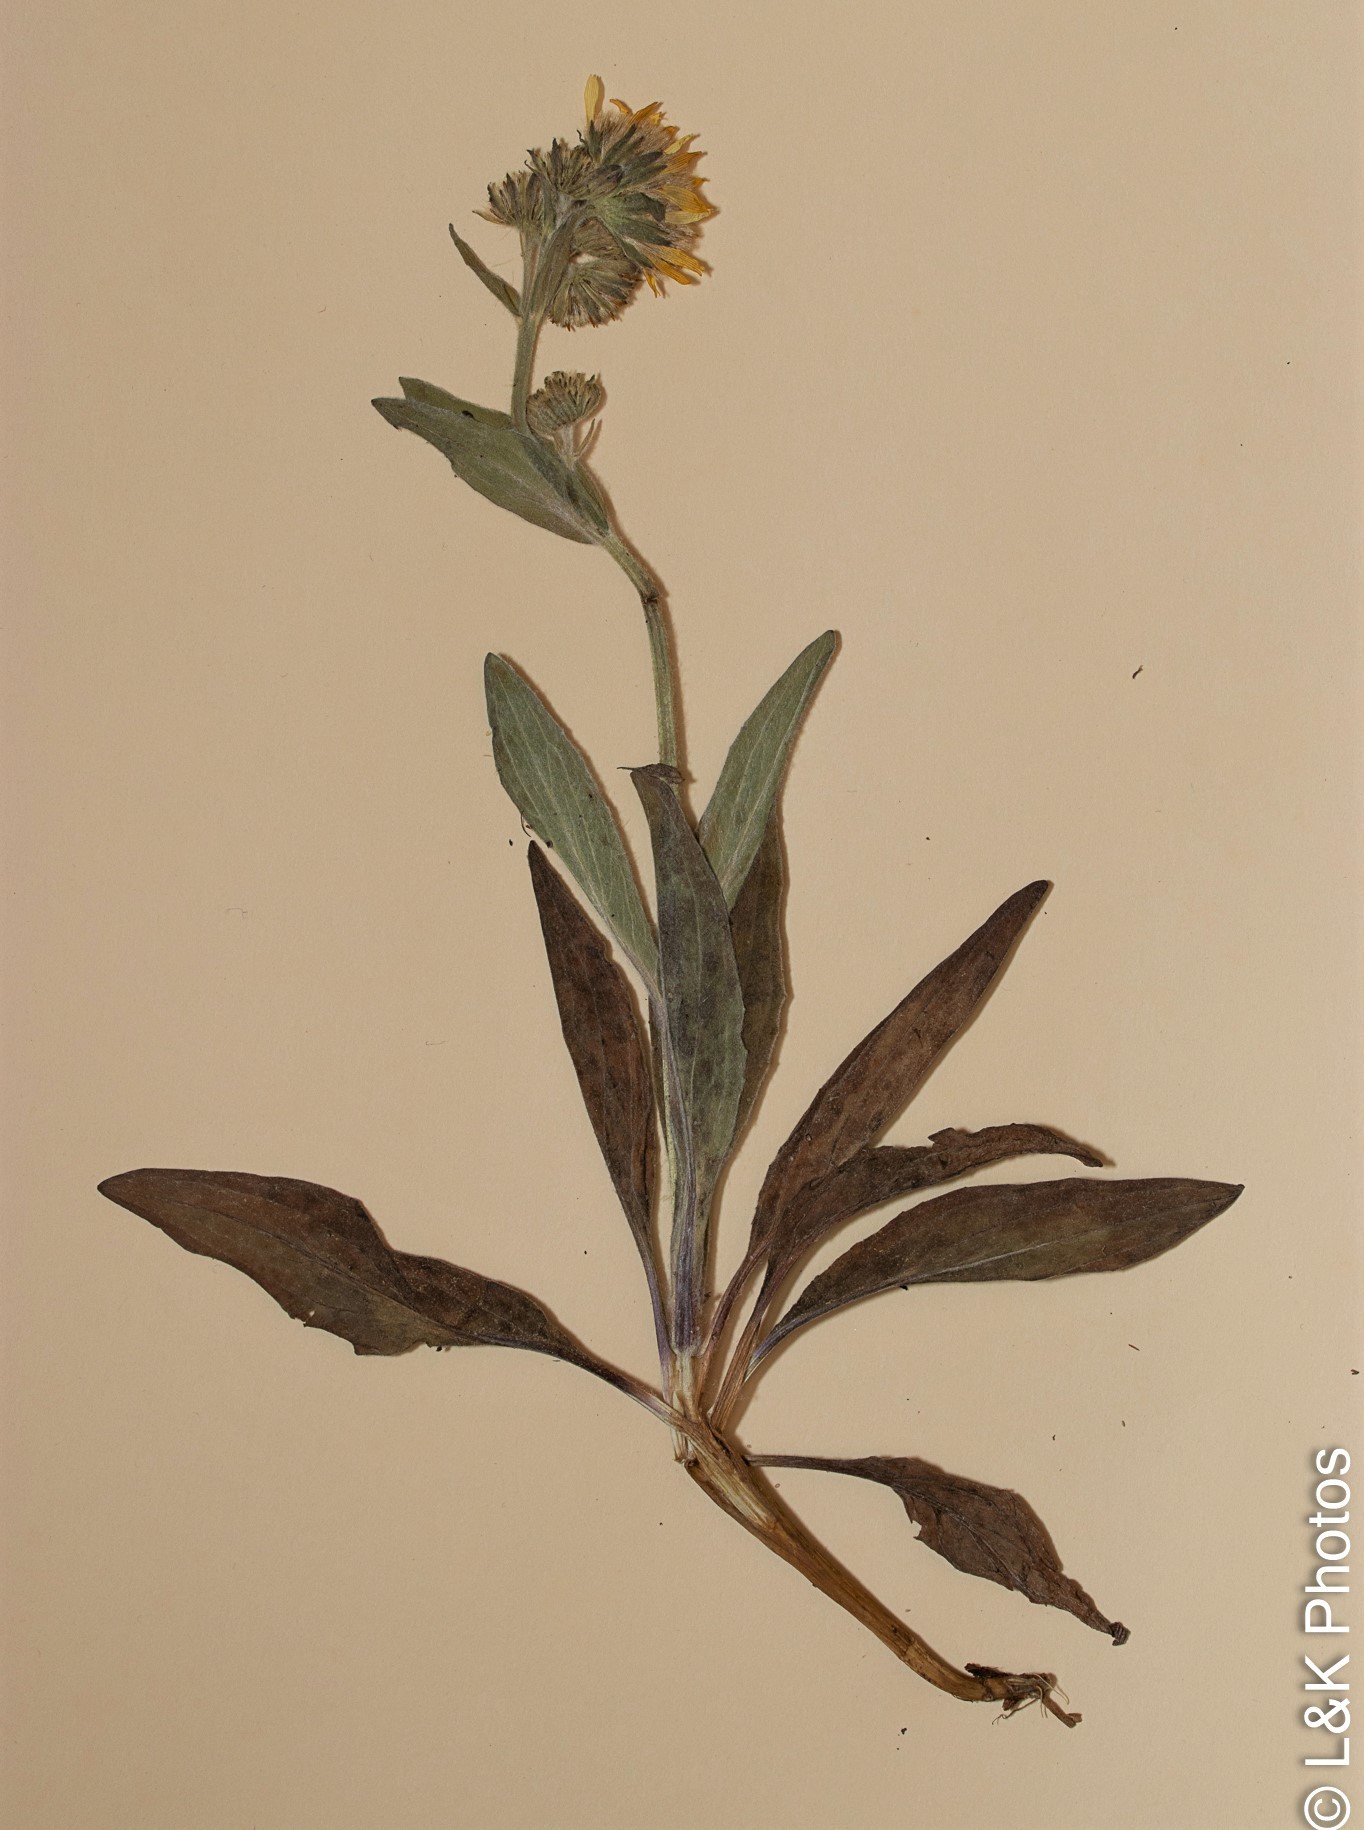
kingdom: Plantae
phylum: Tracheophyta
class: Magnoliopsida
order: Asterales
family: Asteraceae
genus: Arnica
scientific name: Arnica chamissonis
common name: Leafy arnica
